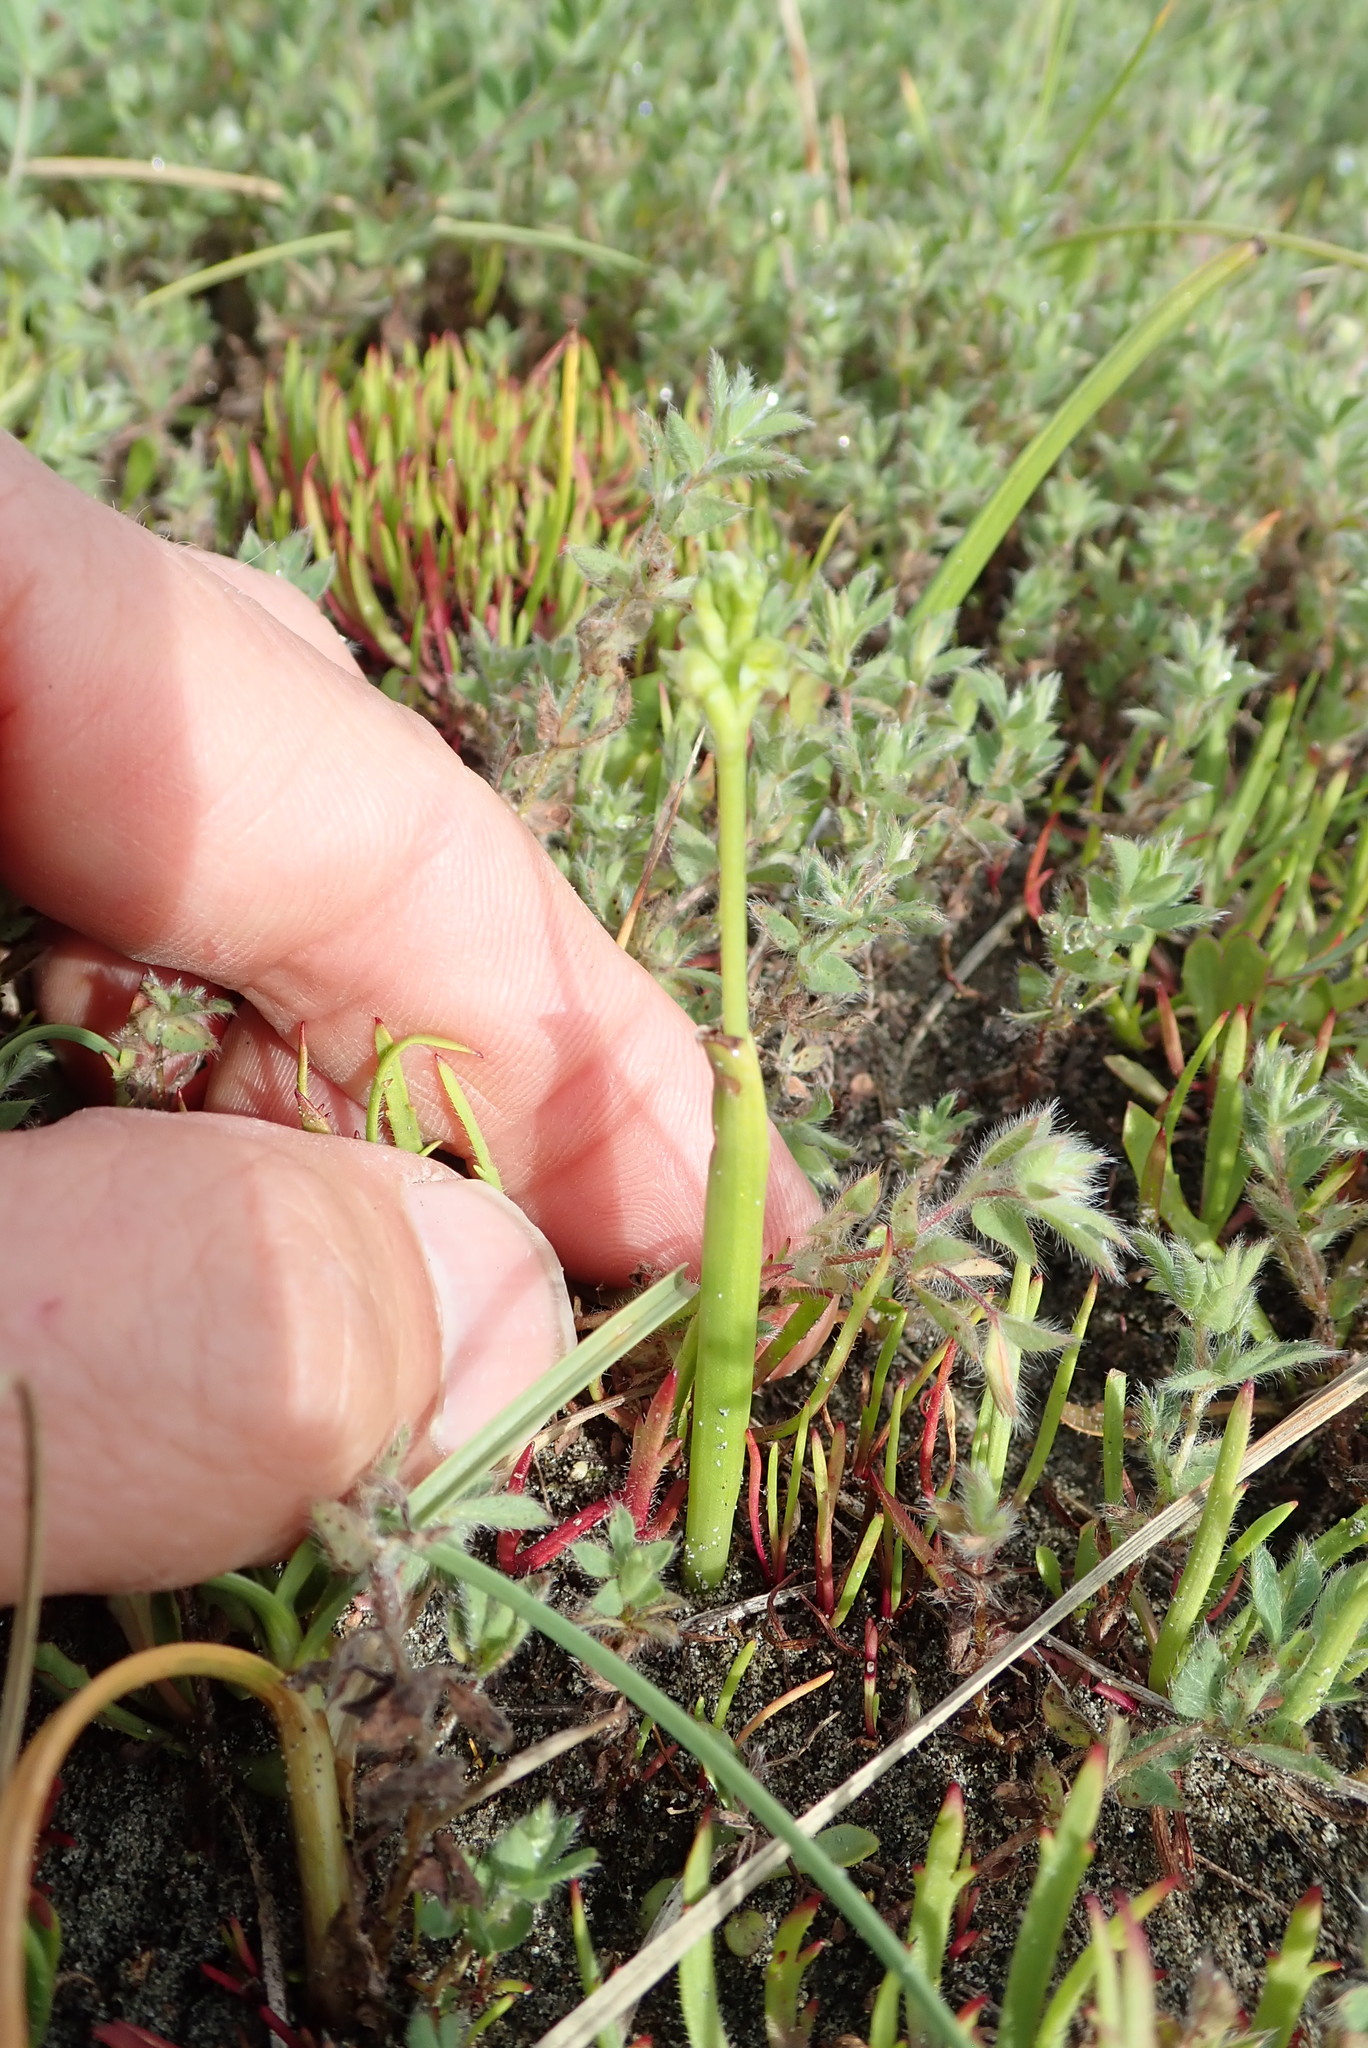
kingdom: Plantae
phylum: Tracheophyta
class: Liliopsida
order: Asparagales
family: Orchidaceae
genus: Microtis
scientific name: Microtis unifolia
